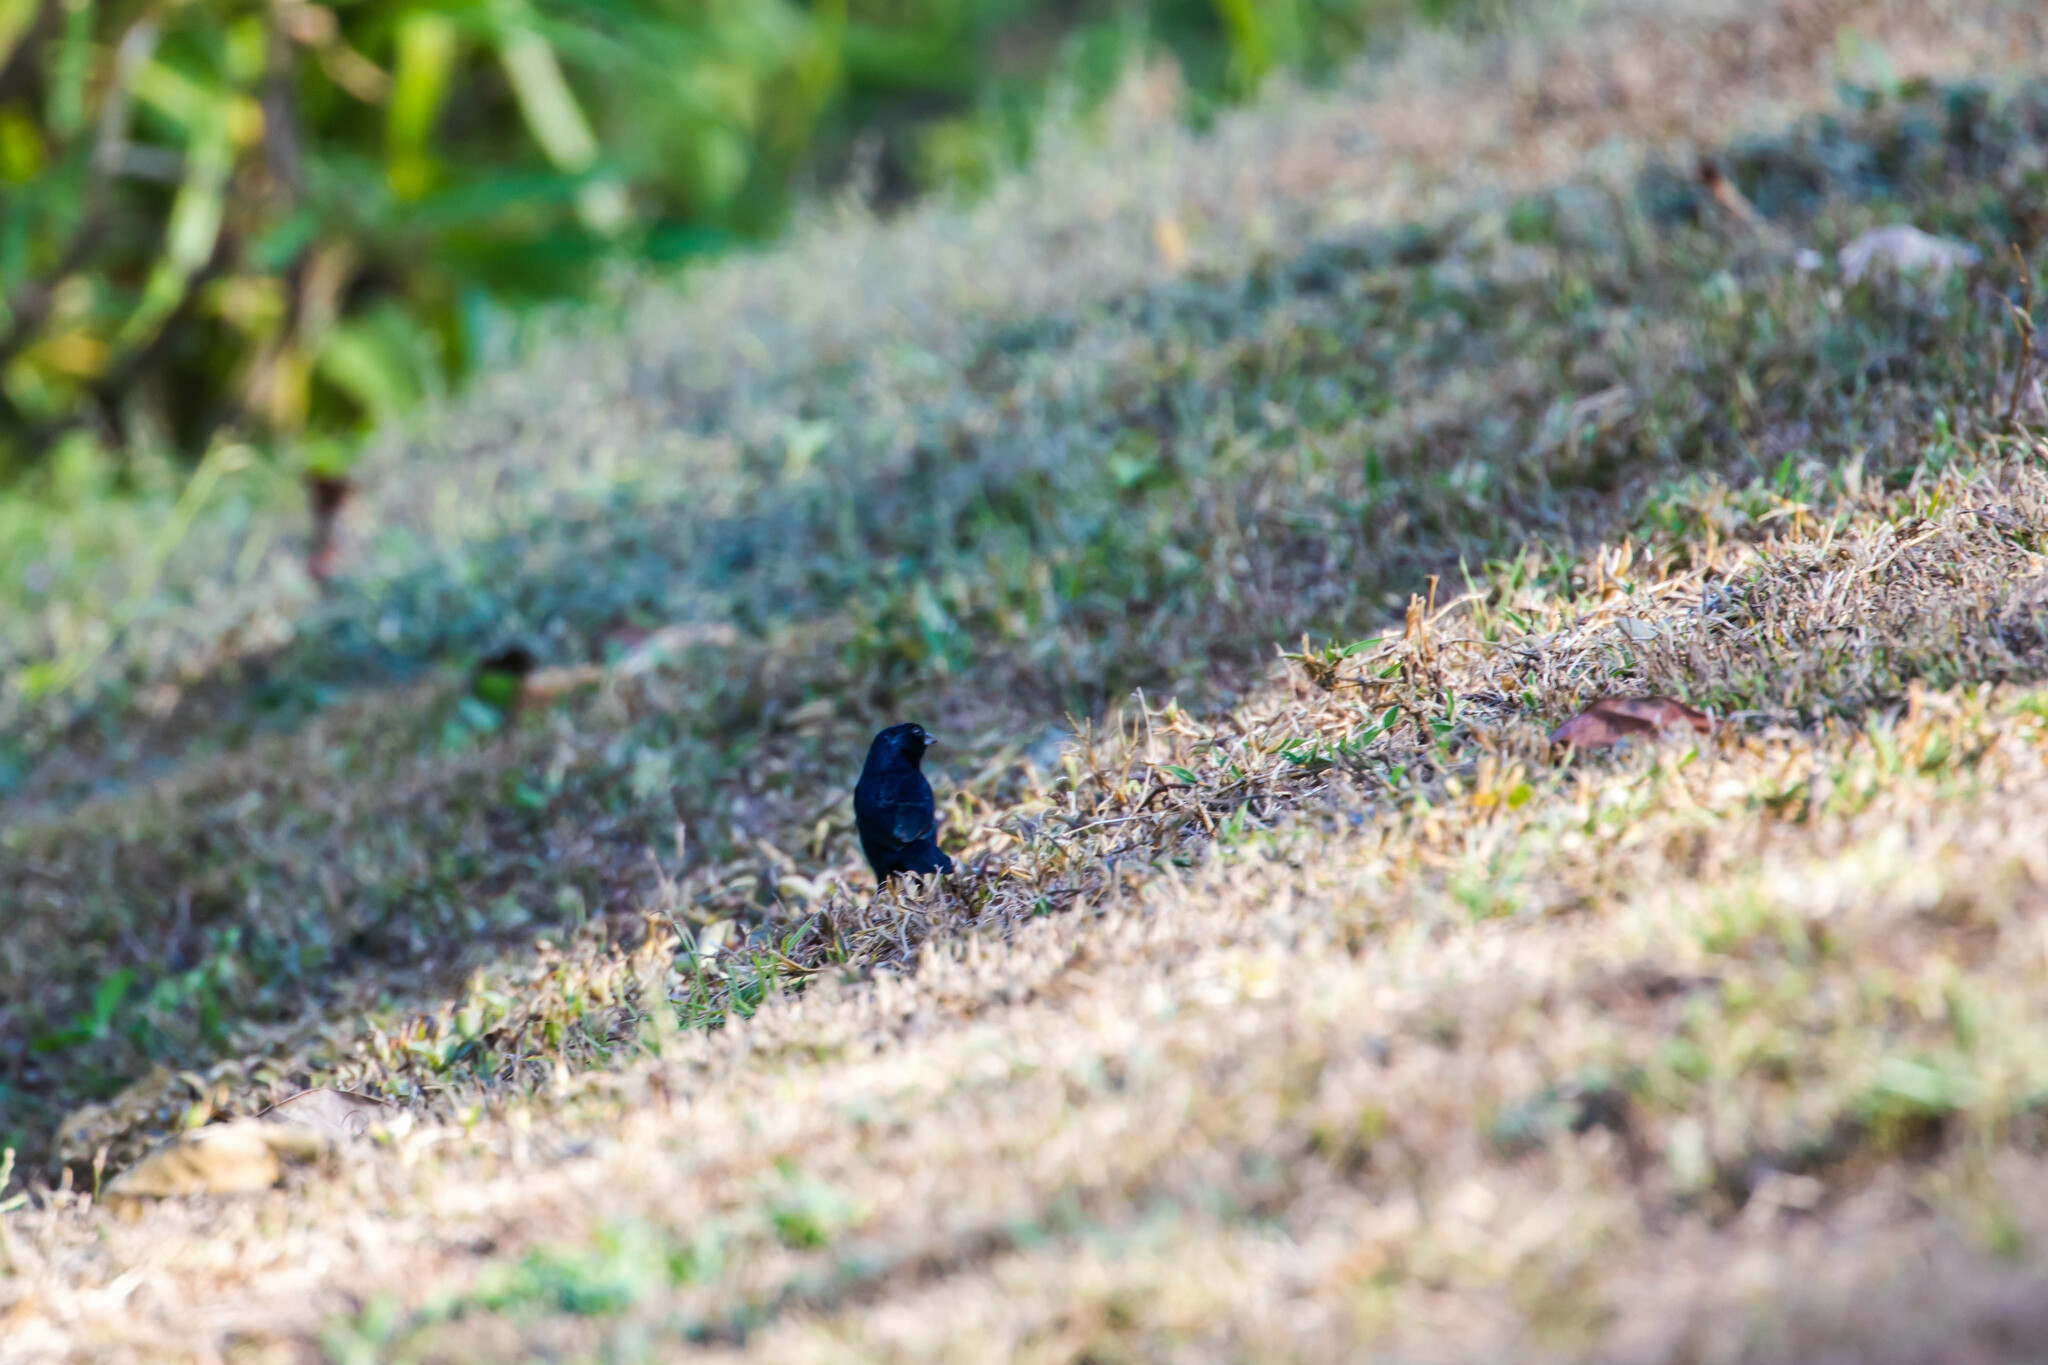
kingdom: Animalia
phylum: Chordata
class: Aves
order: Passeriformes
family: Thraupidae
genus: Volatinia
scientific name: Volatinia jacarina
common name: Blue-black grassquit
